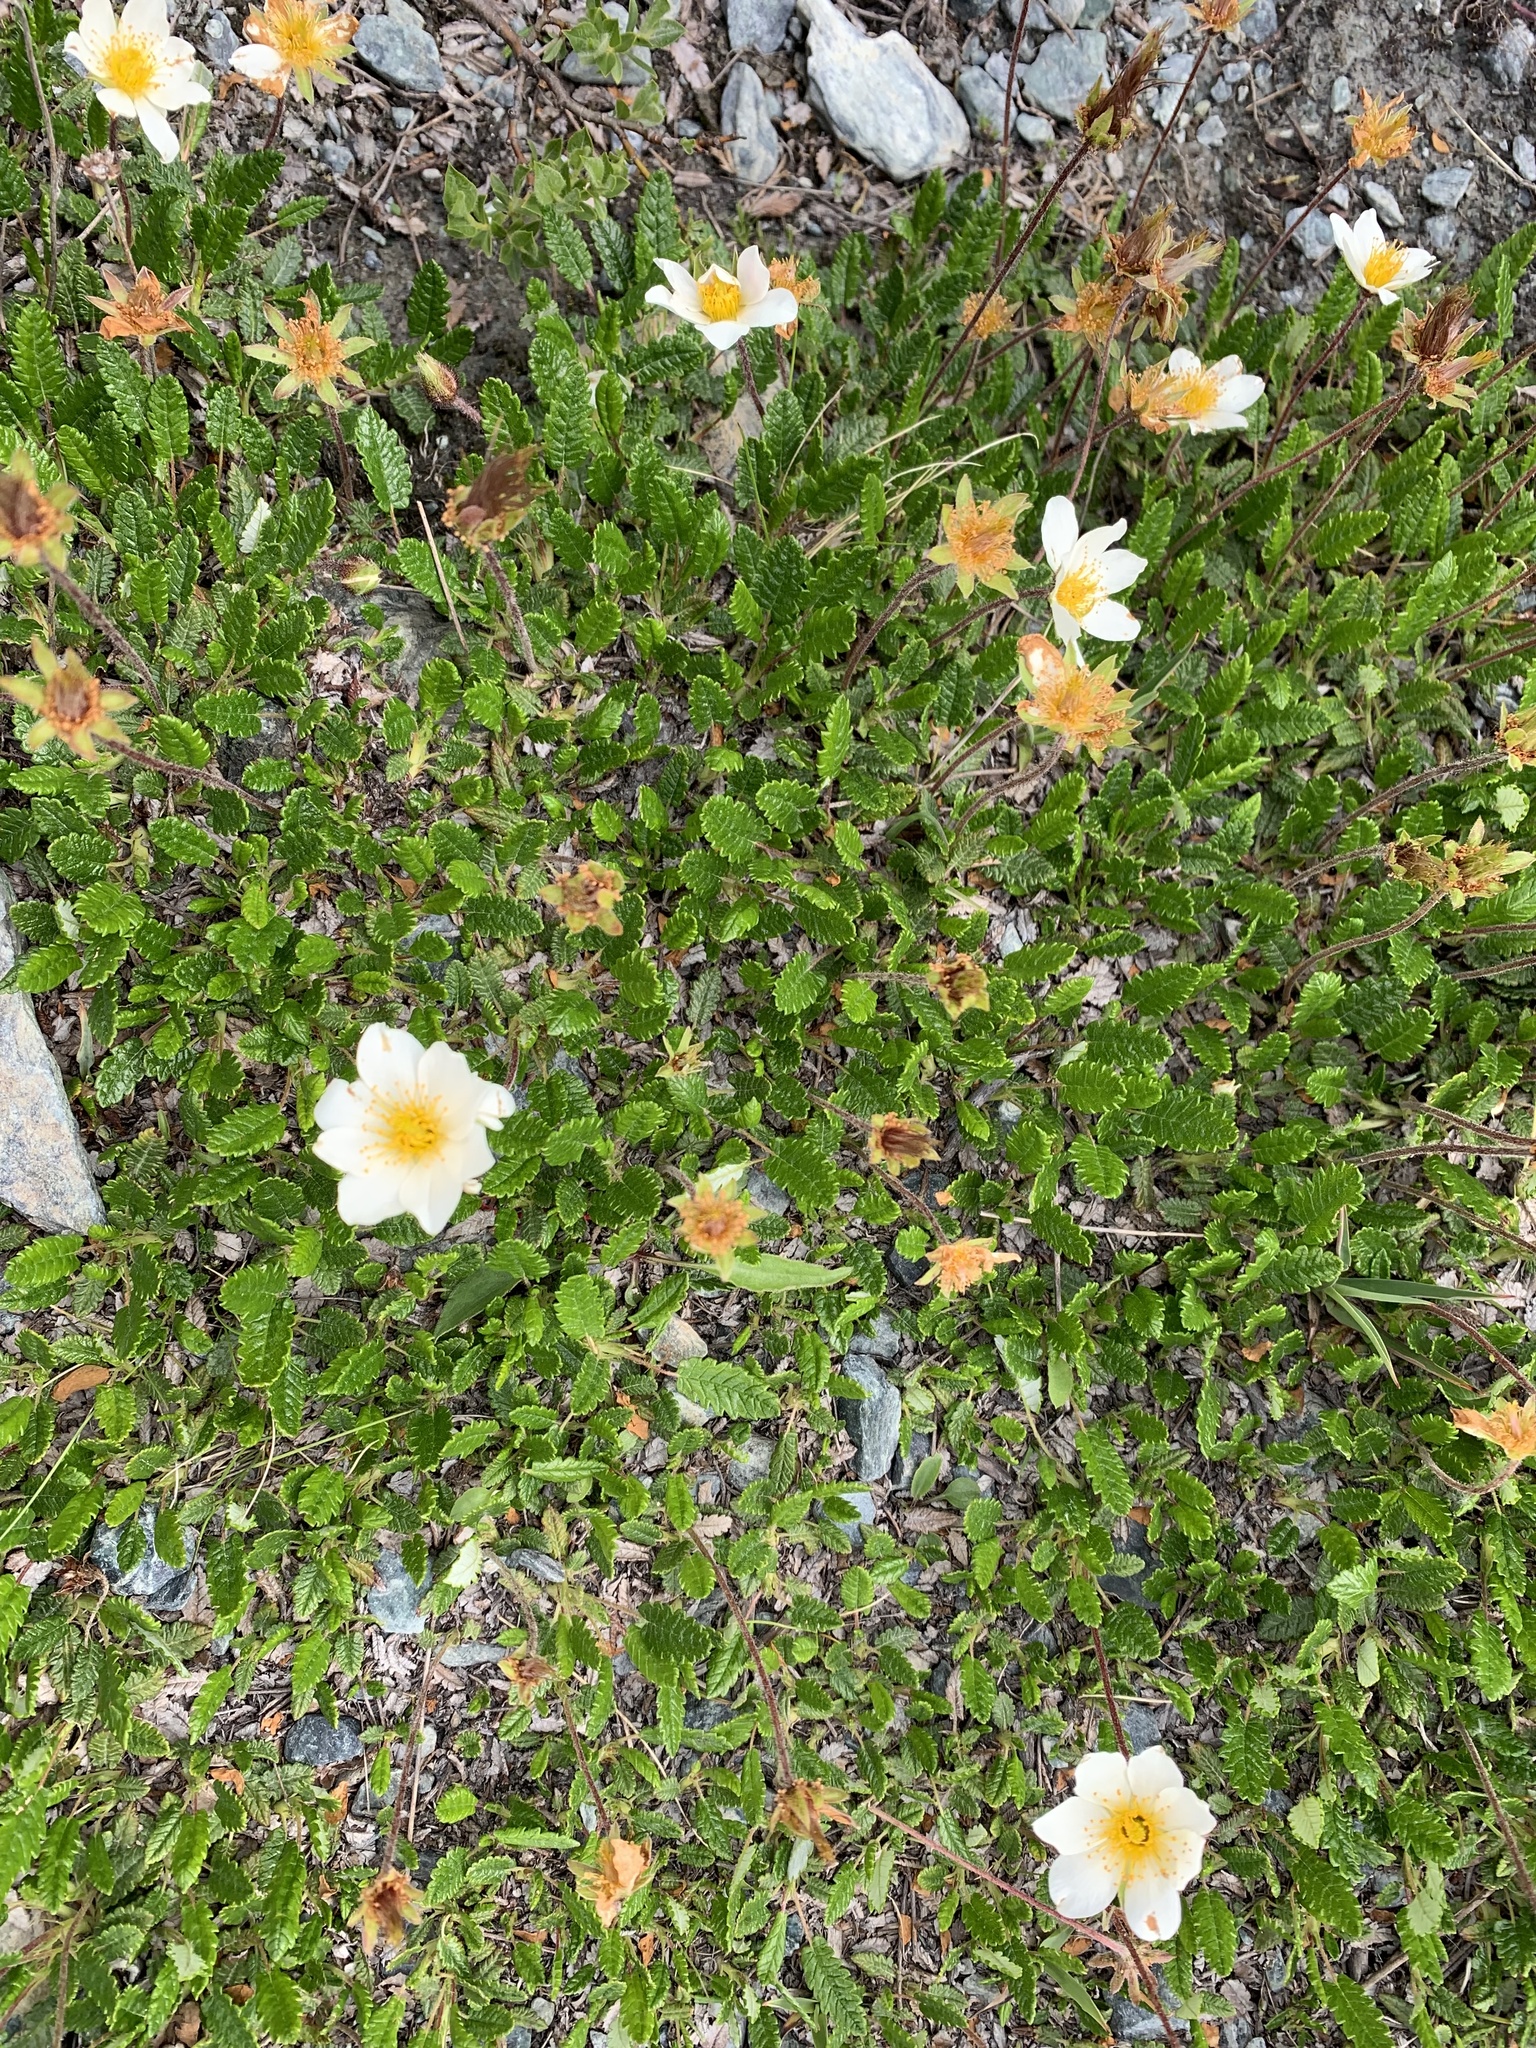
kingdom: Plantae
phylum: Tracheophyta
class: Magnoliopsida
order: Rosales
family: Rosaceae
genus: Dryas
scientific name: Dryas octopetala
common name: Eight-petal mountain-avens
